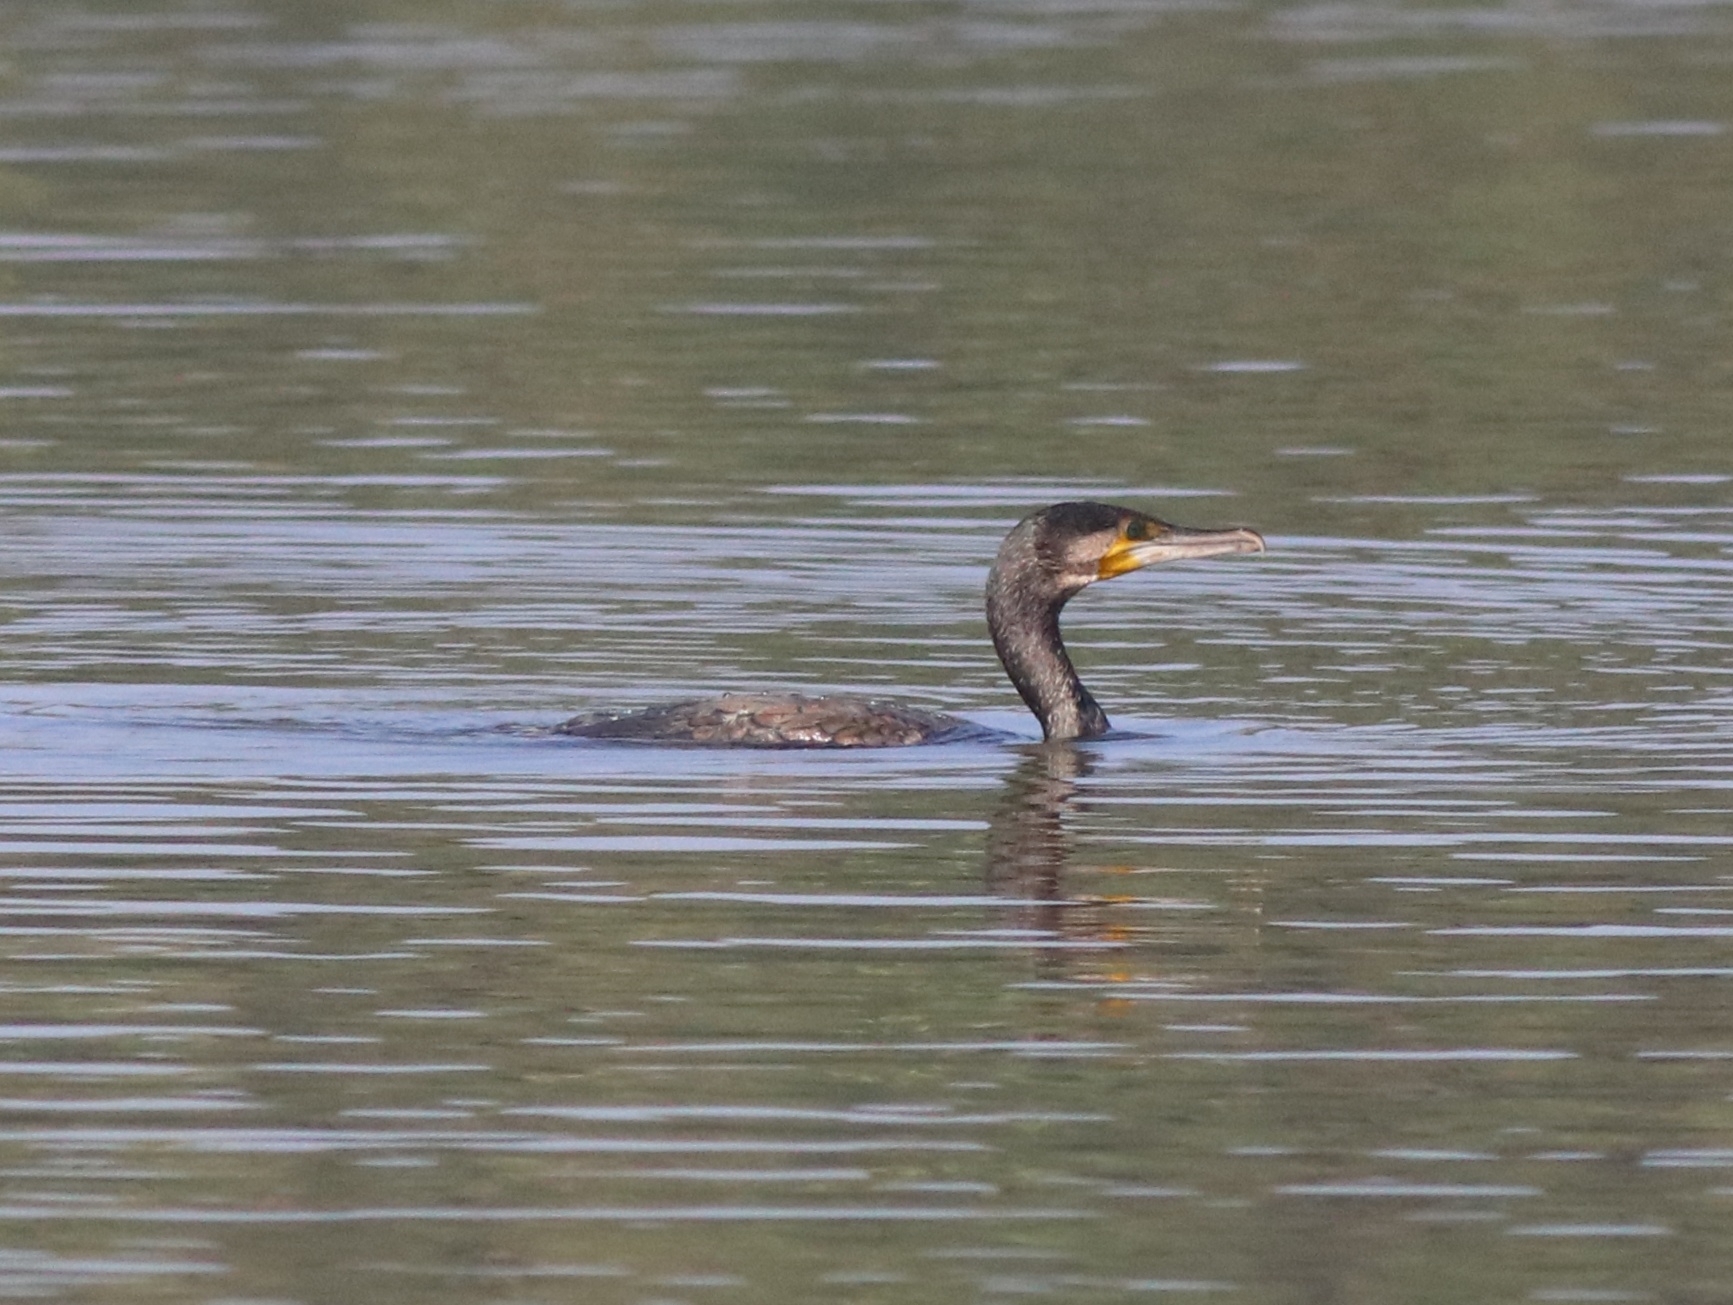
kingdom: Animalia
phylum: Chordata
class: Aves
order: Suliformes
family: Phalacrocoracidae
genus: Phalacrocorax
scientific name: Phalacrocorax fuscicollis
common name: Indian cormorant
